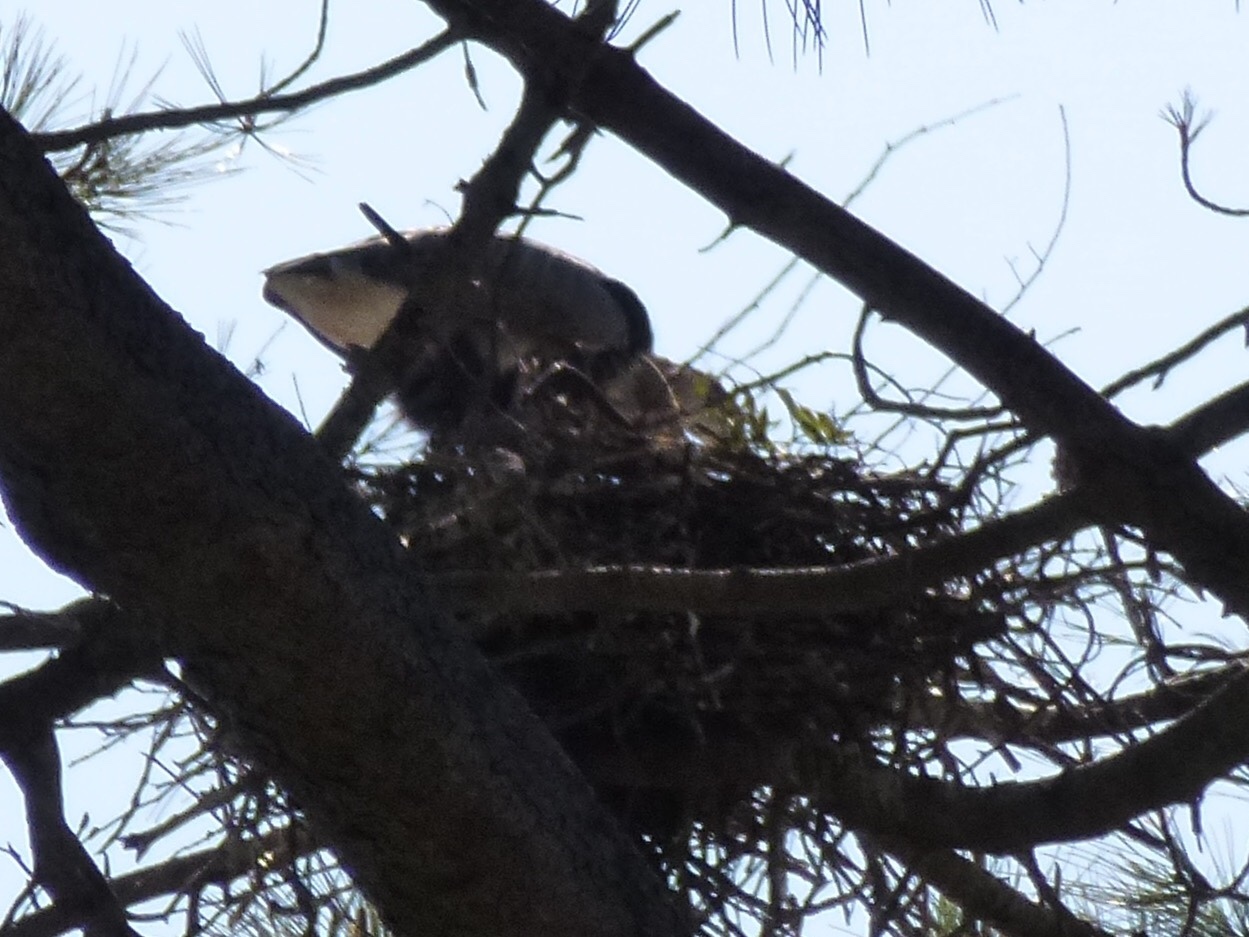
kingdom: Animalia
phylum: Chordata
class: Aves
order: Pelecaniformes
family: Ardeidae
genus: Ardea
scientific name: Ardea herodias
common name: Great blue heron
